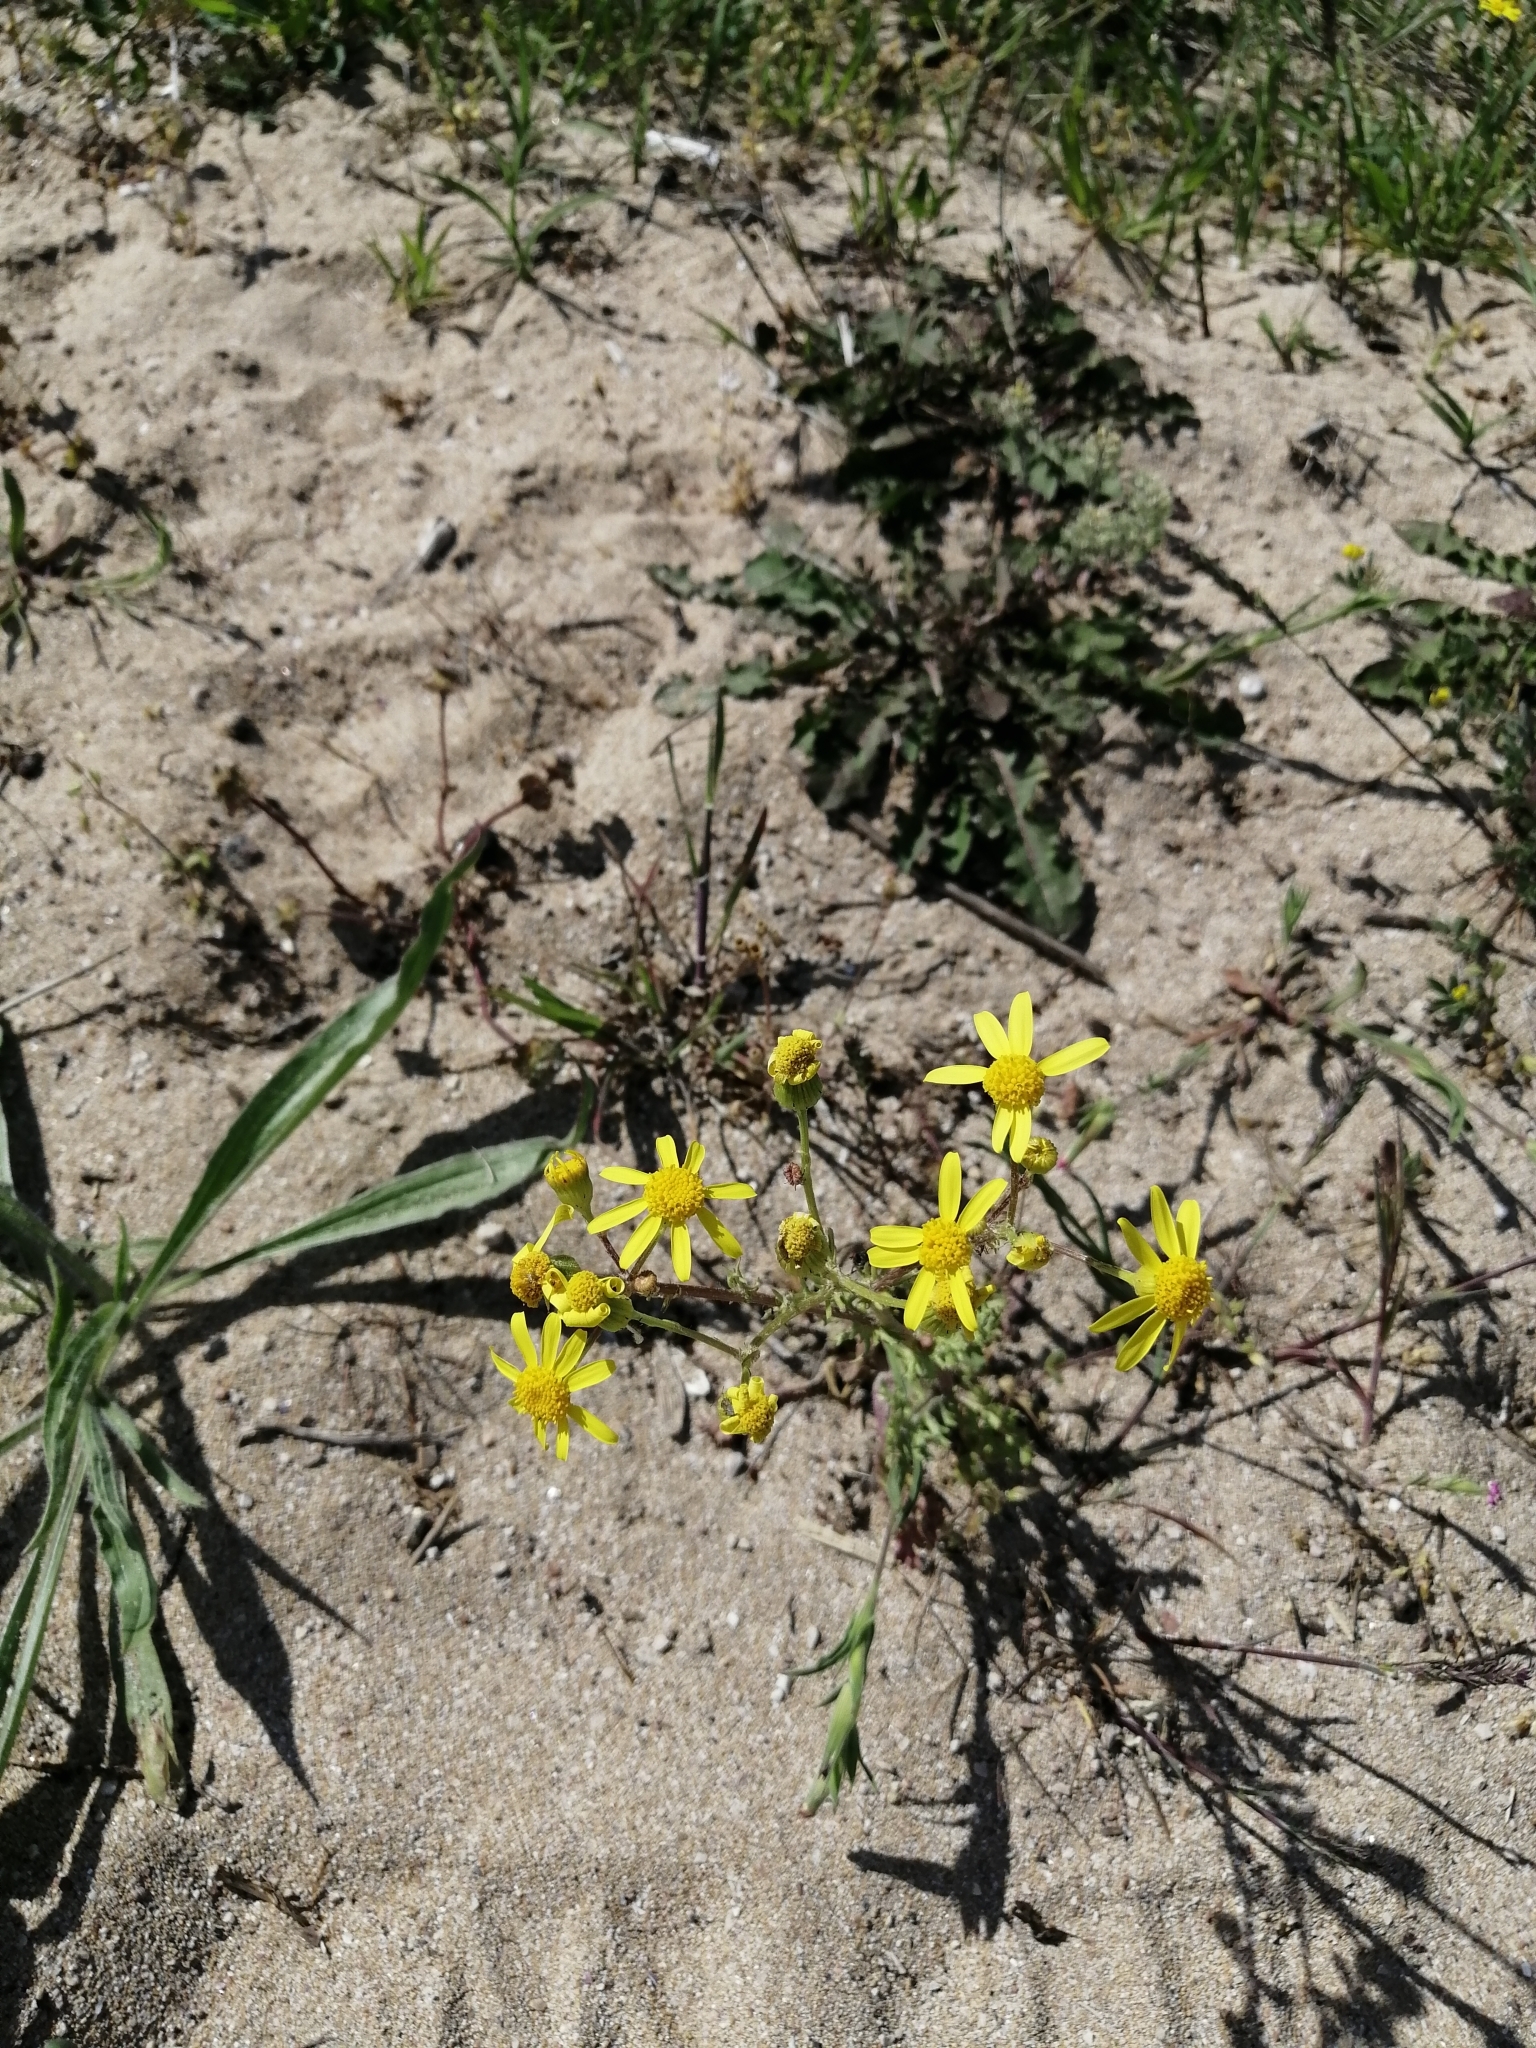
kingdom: Plantae
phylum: Tracheophyta
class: Magnoliopsida
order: Asterales
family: Asteraceae
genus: Senecio
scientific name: Senecio vernalis
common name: Eastern groundsel
